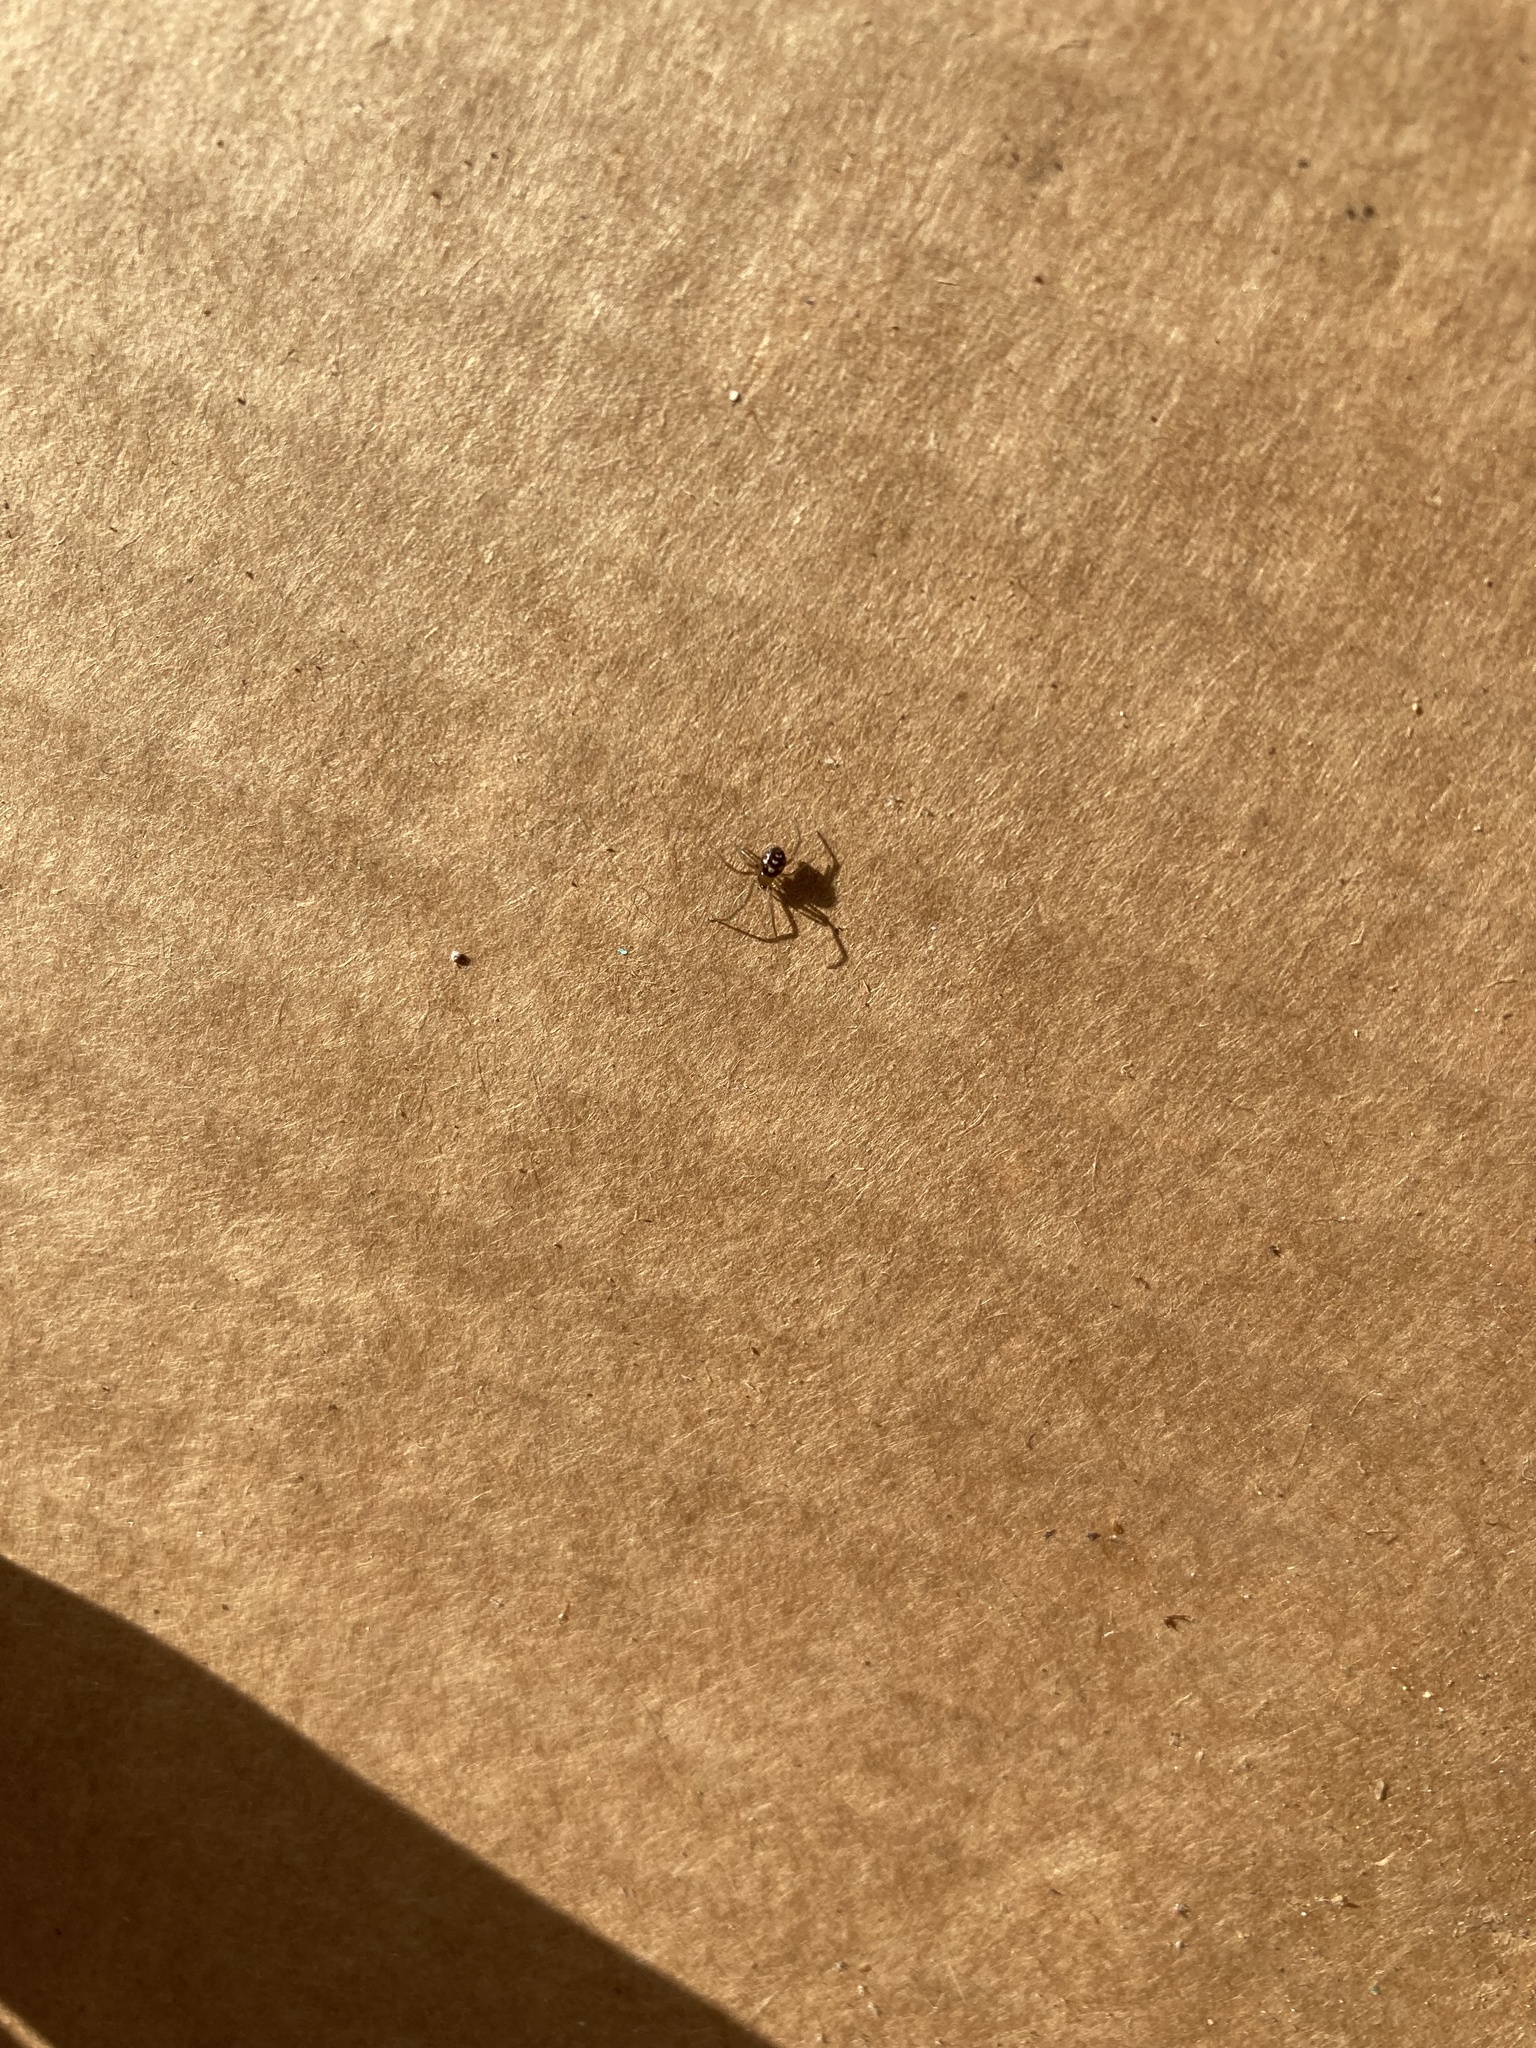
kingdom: Animalia
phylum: Arthropoda
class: Arachnida
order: Araneae
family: Theridiidae
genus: Steatoda
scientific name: Steatoda grossa
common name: False black widow
